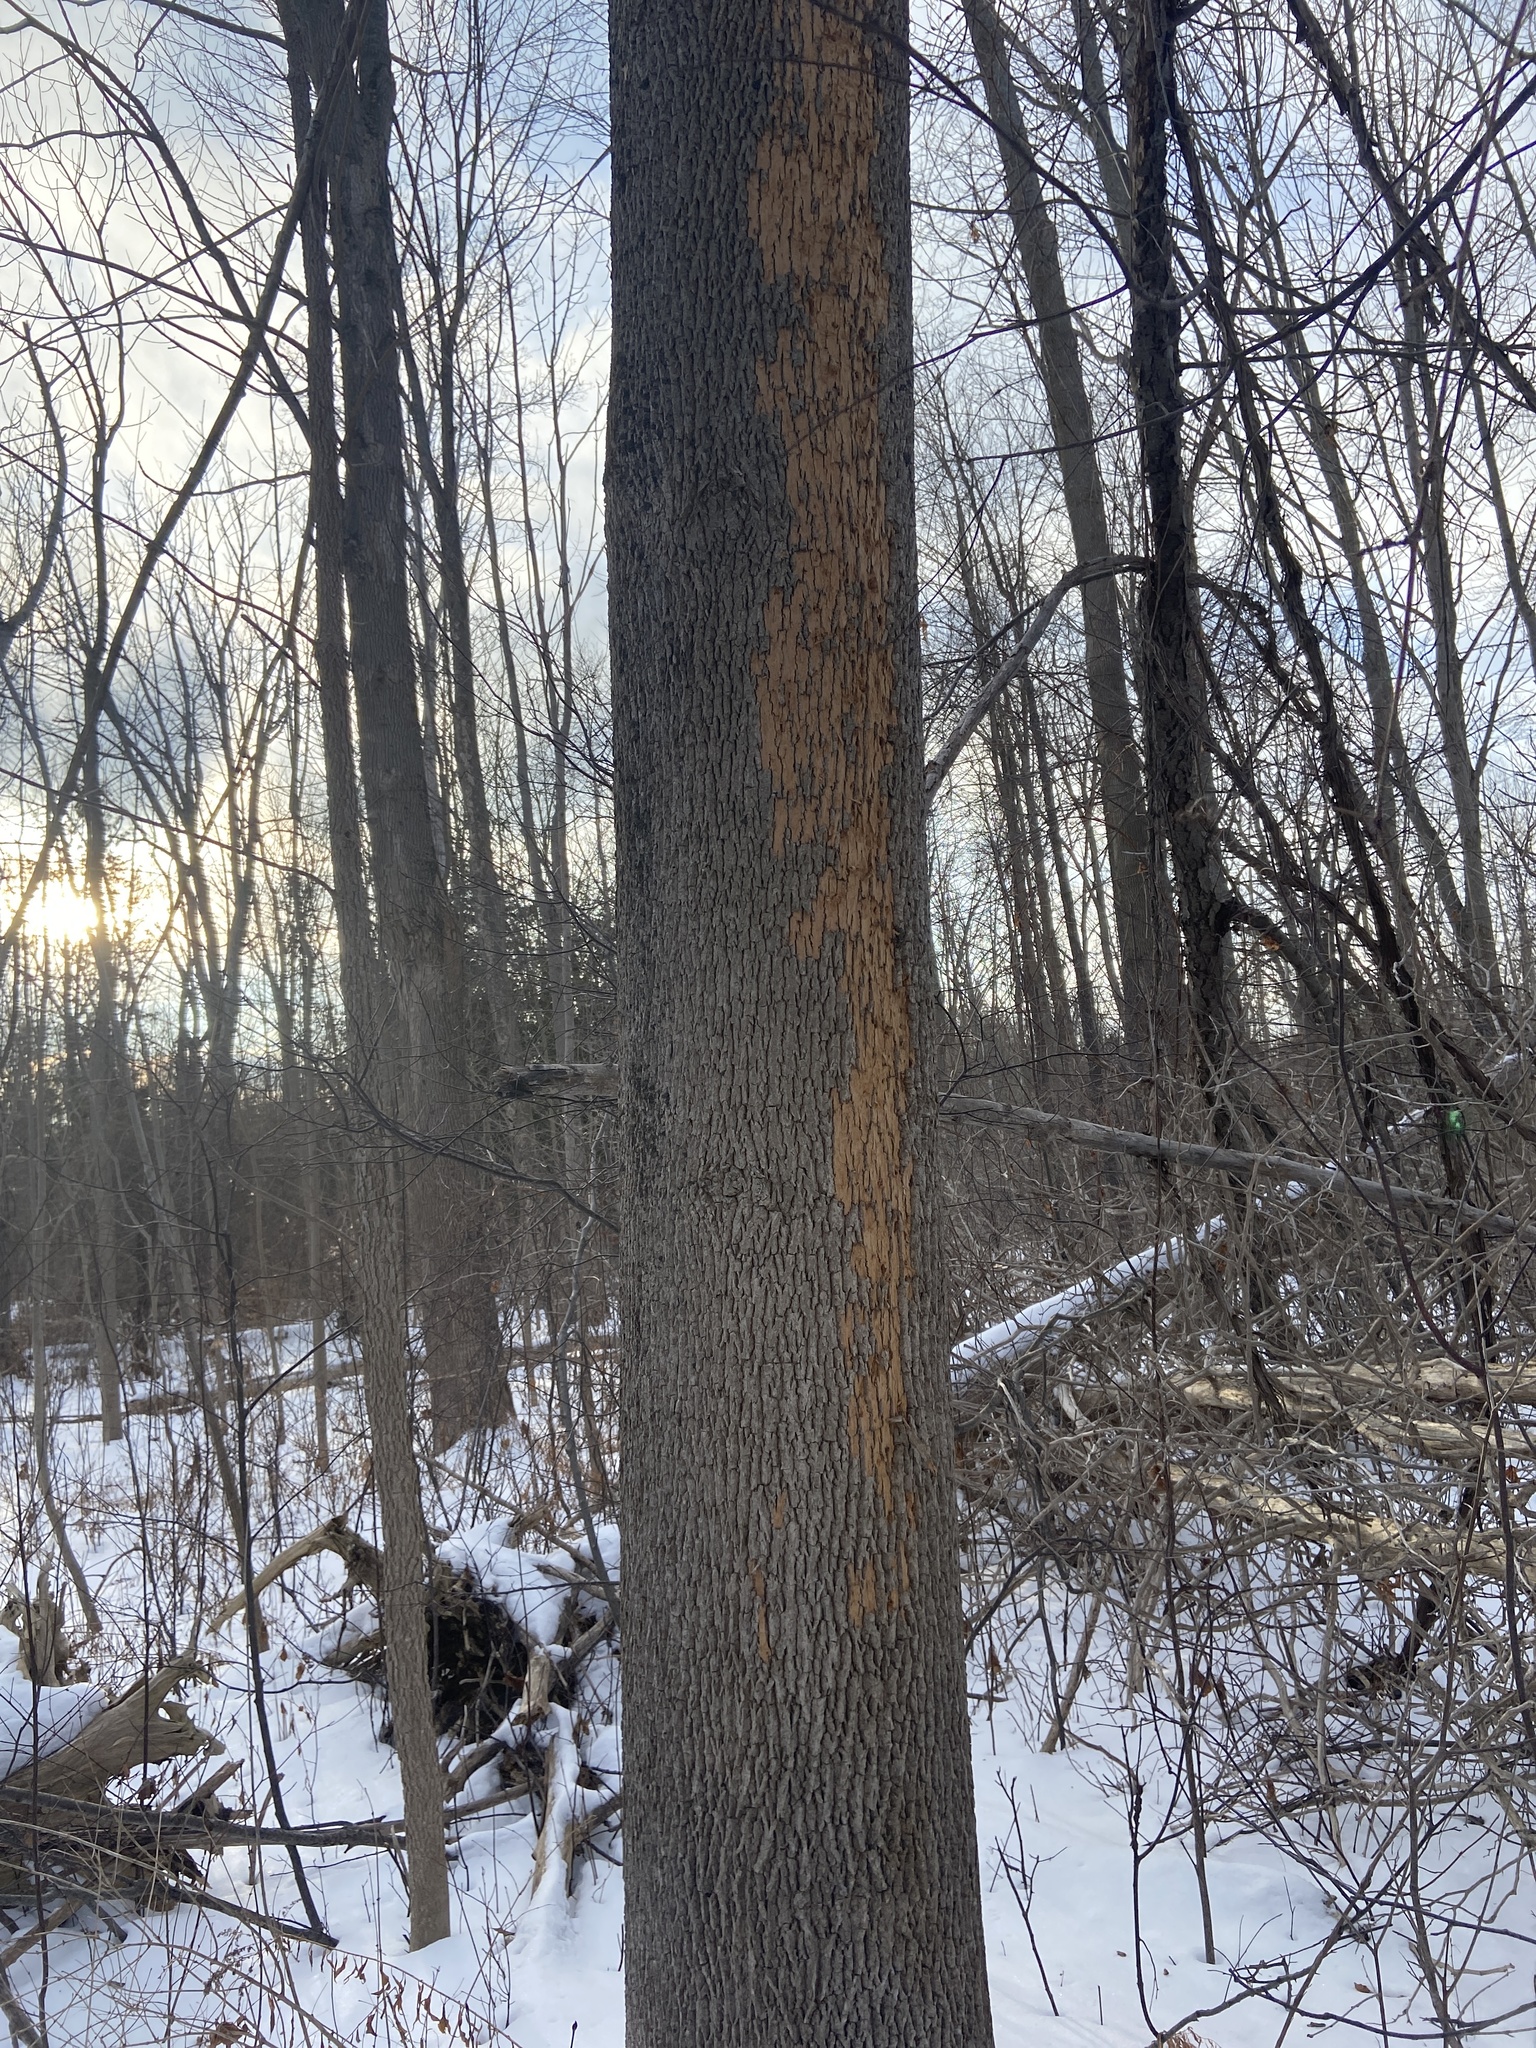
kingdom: Animalia
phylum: Arthropoda
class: Insecta
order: Coleoptera
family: Buprestidae
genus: Agrilus
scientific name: Agrilus planipennis
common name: Emerald ash borer
